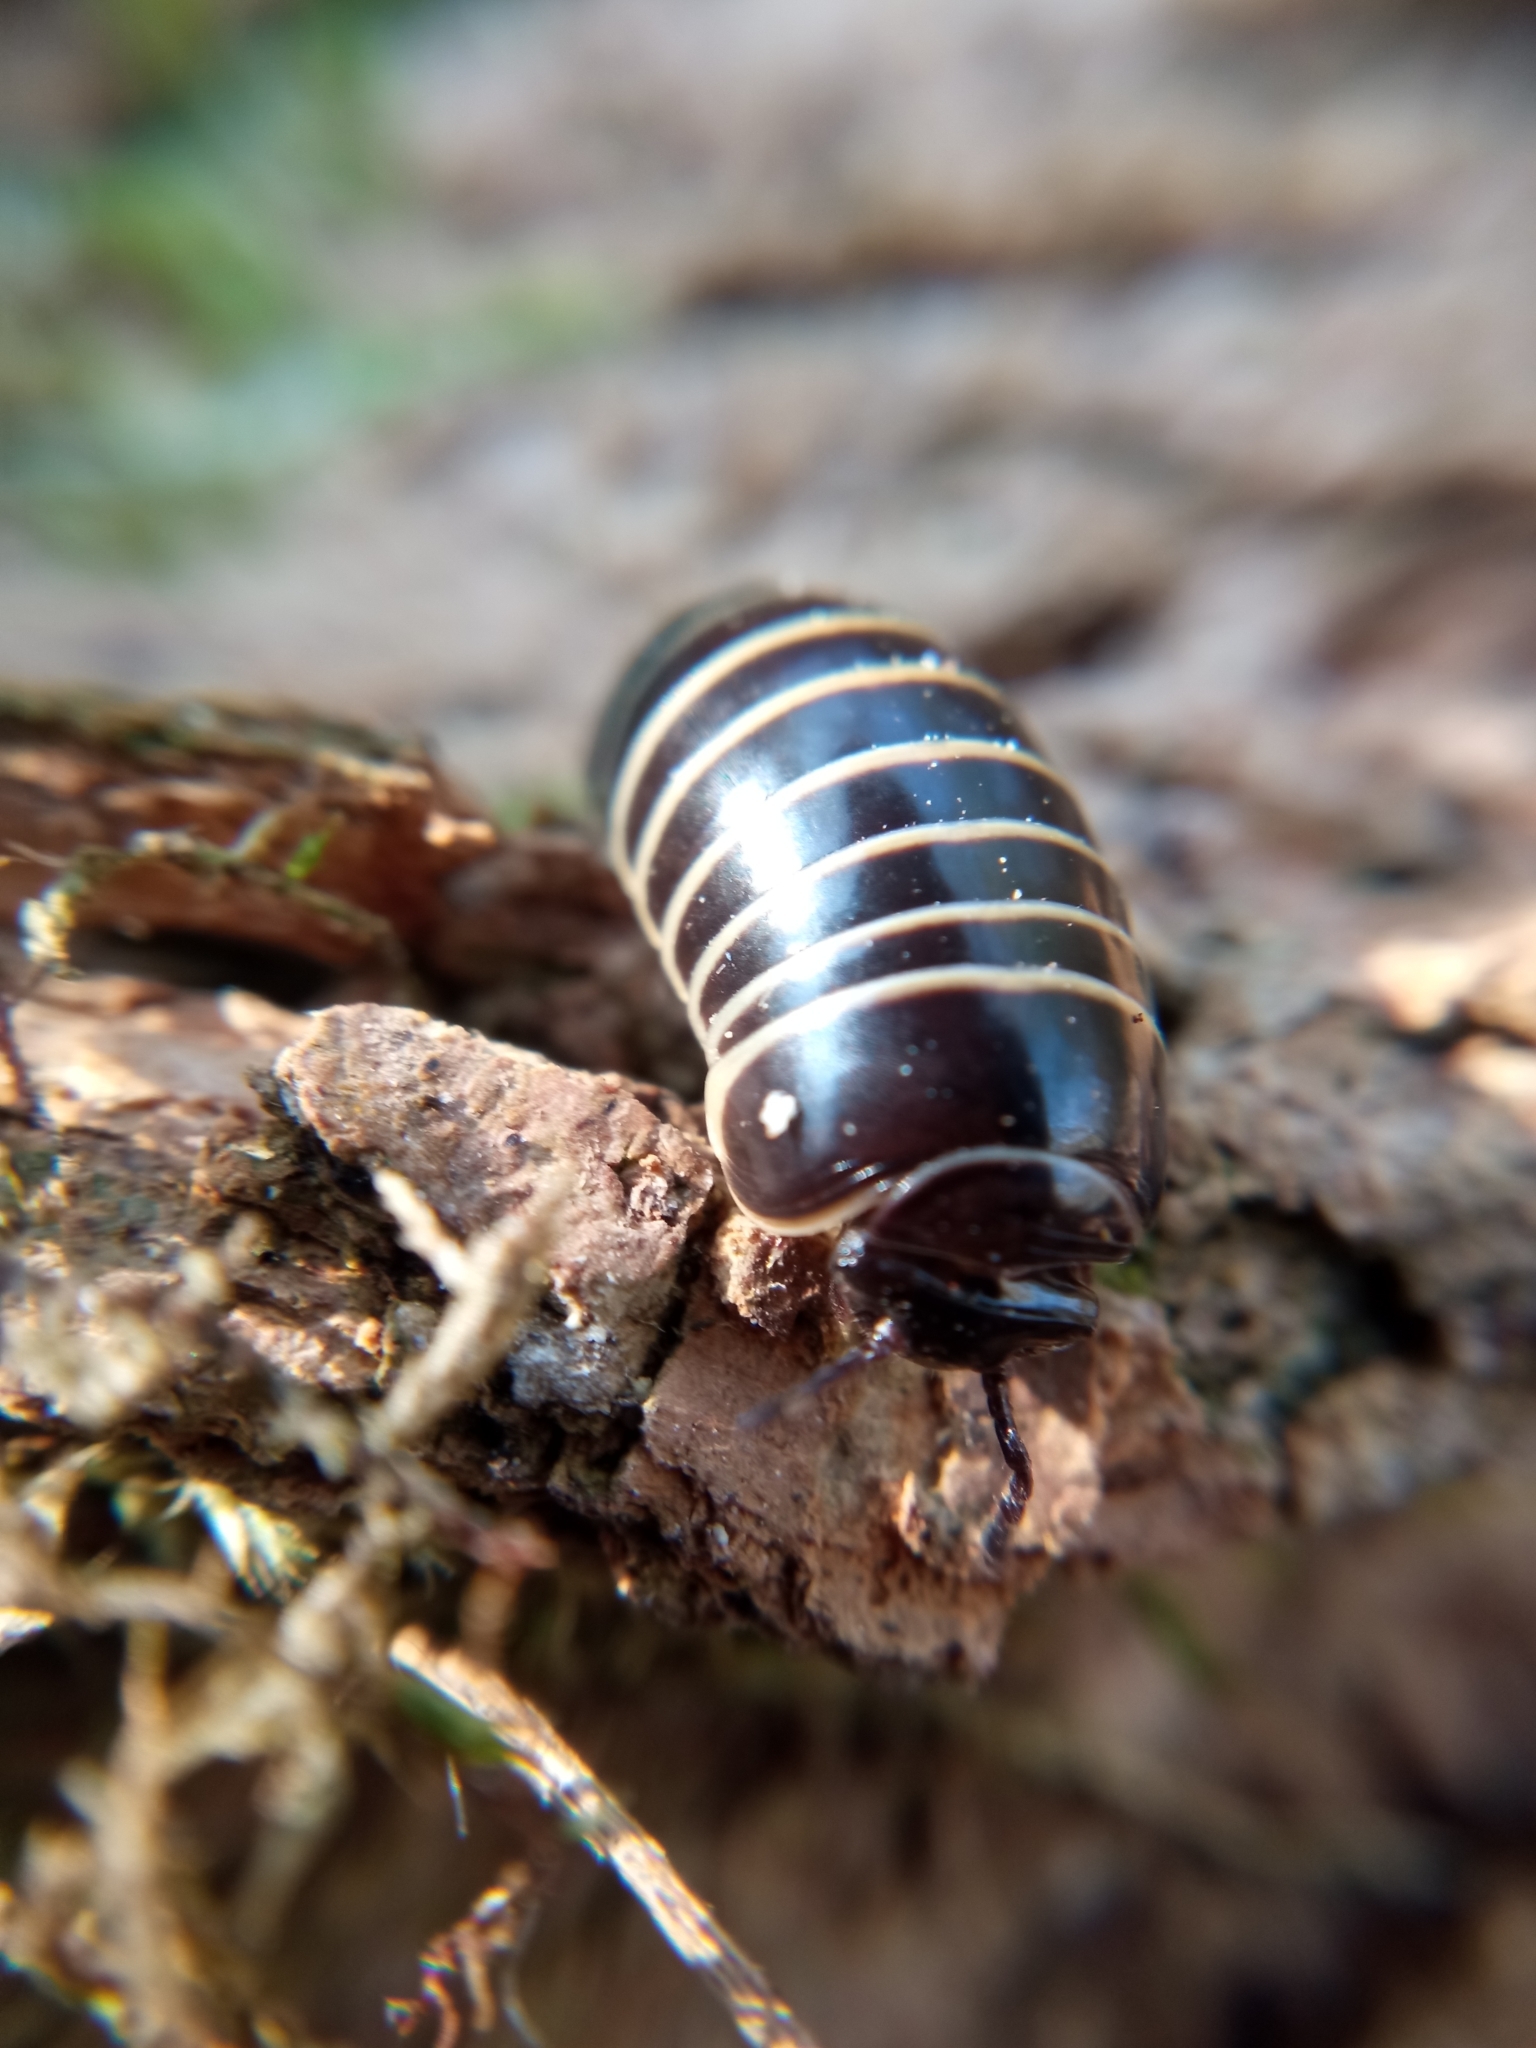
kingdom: Animalia
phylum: Arthropoda
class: Diplopoda
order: Glomerida
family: Glomeridae
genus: Glomeris
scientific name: Glomeris marginata
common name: Bordered pill millipede
